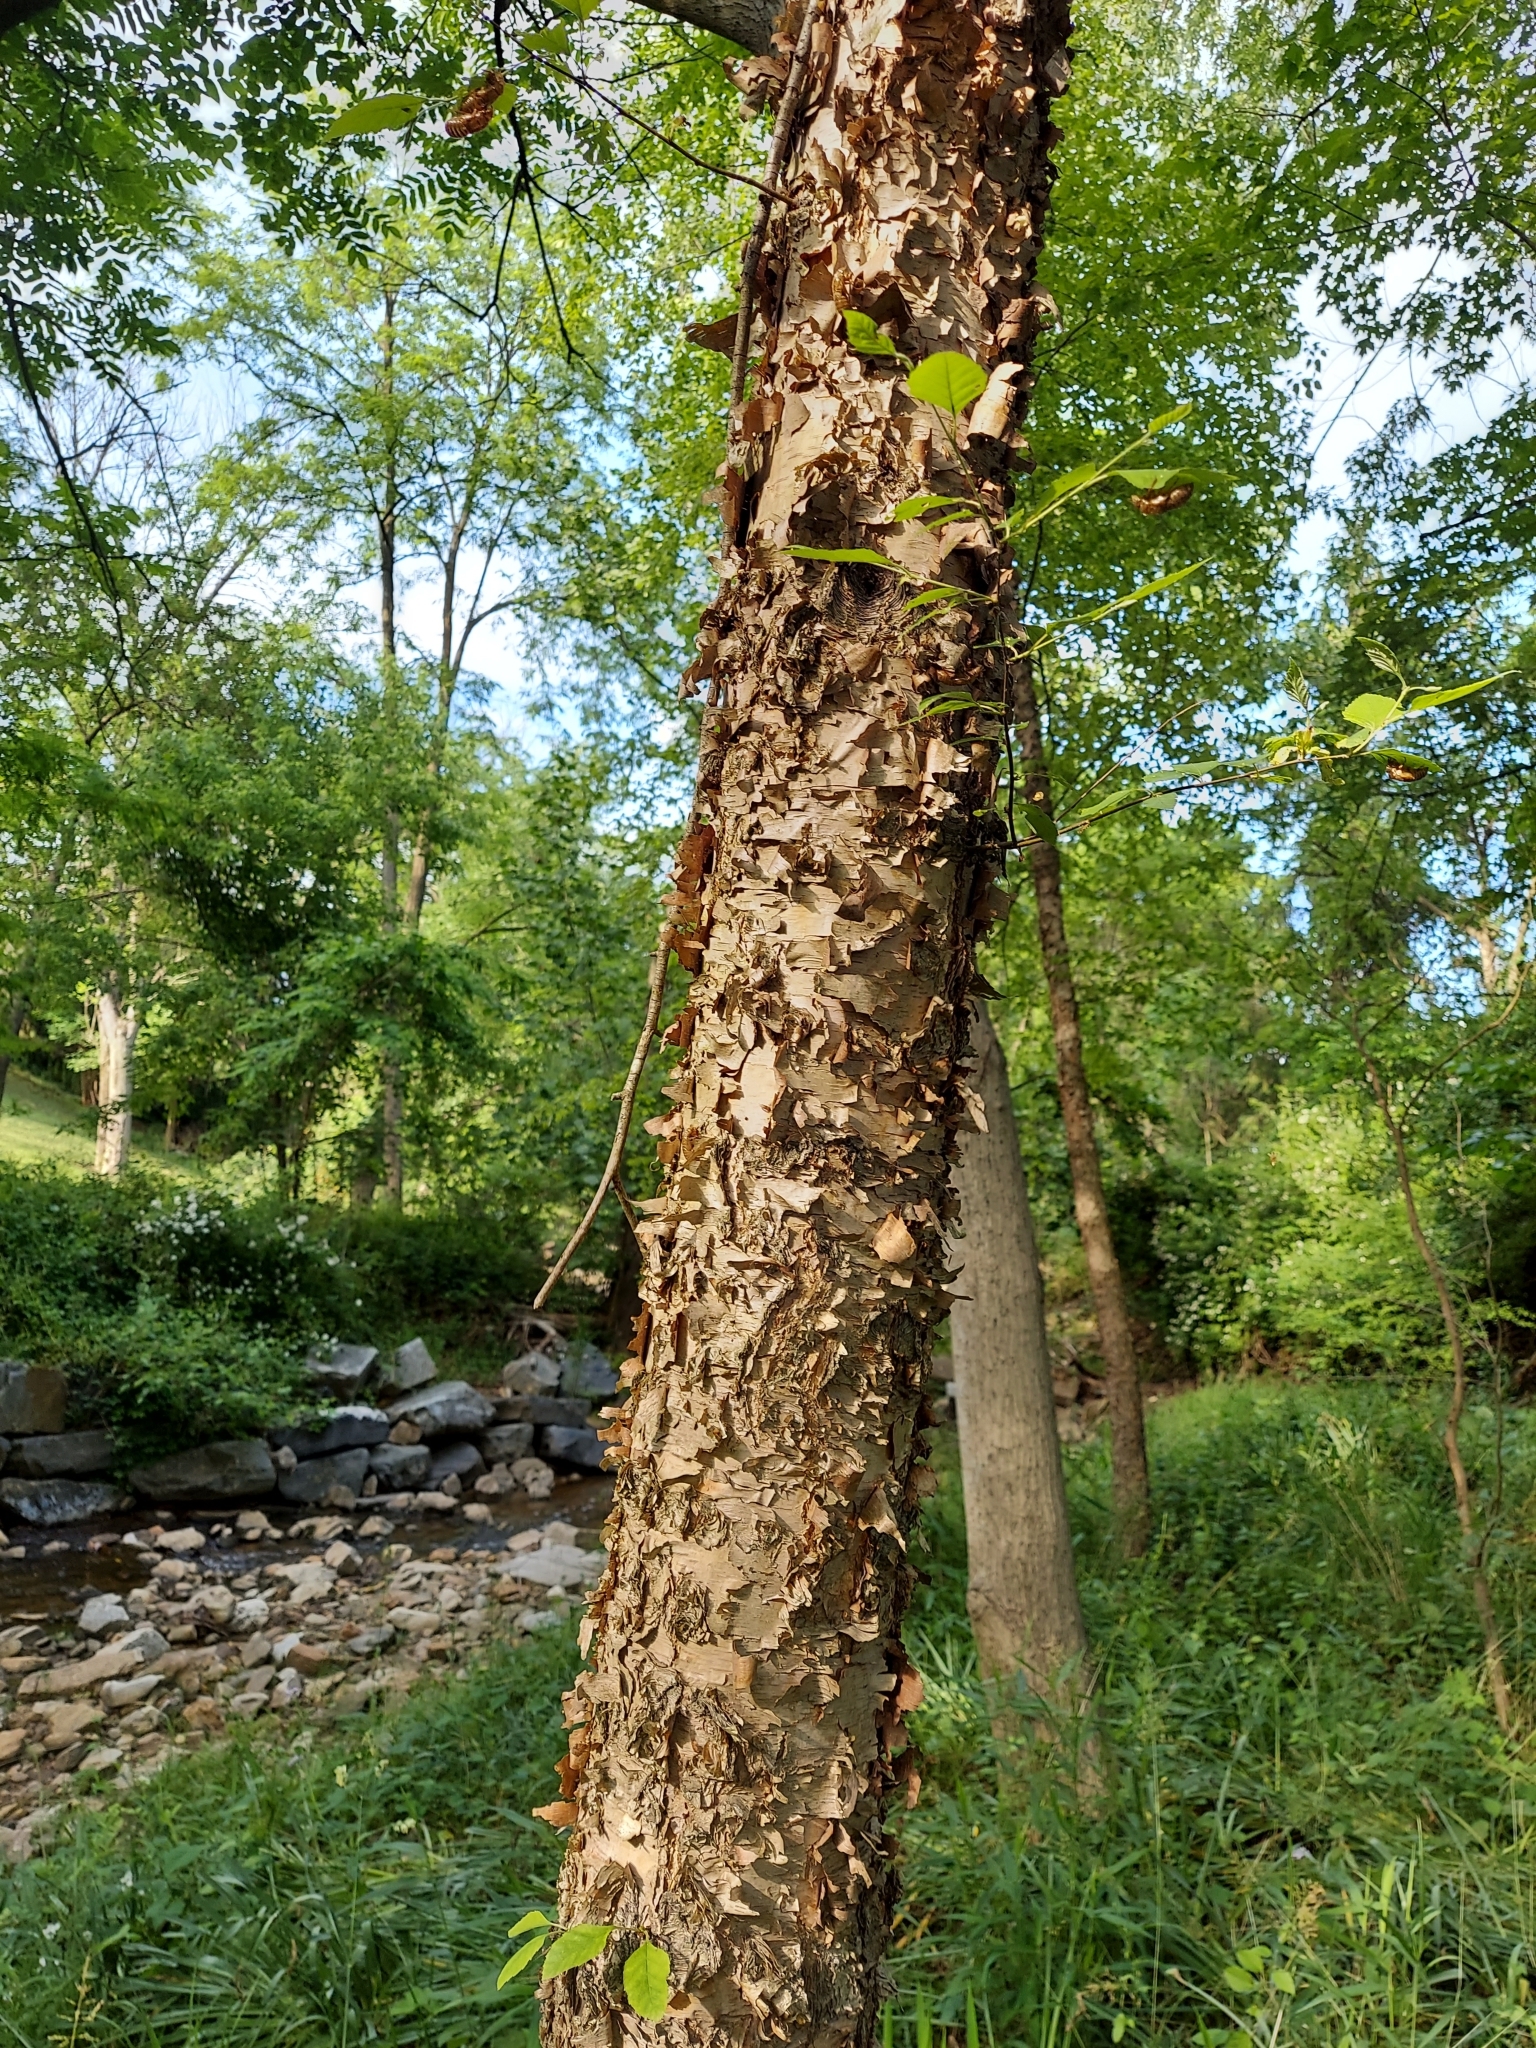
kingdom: Plantae
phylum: Tracheophyta
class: Magnoliopsida
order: Fagales
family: Betulaceae
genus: Betula
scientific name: Betula nigra
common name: Black birch
